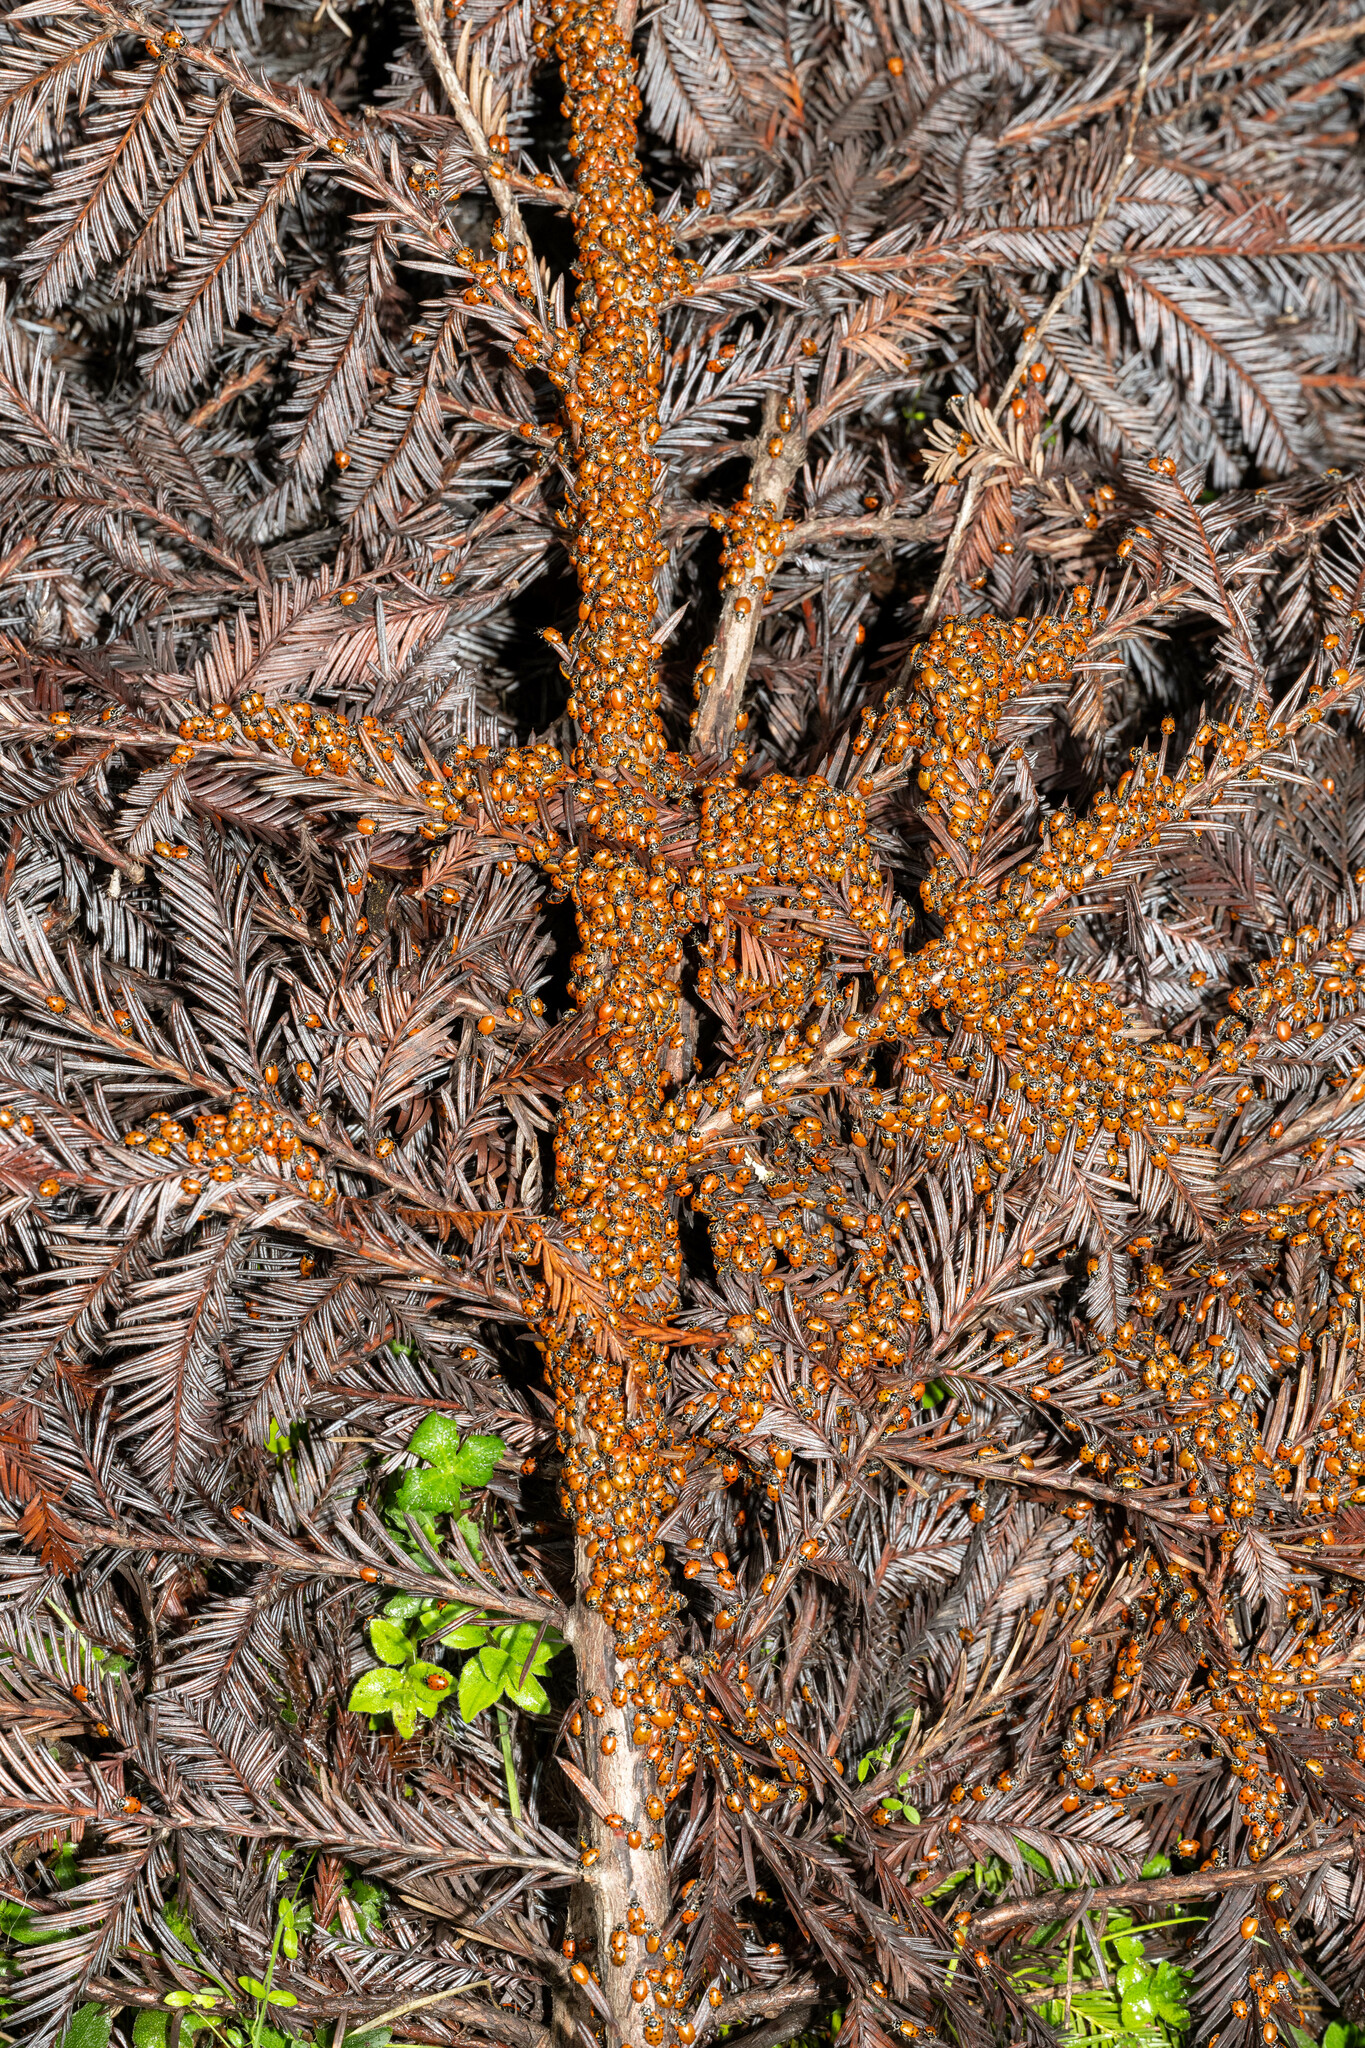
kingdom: Animalia
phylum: Arthropoda
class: Insecta
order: Coleoptera
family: Coccinellidae
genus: Hippodamia
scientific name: Hippodamia convergens
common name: Convergent lady beetle
